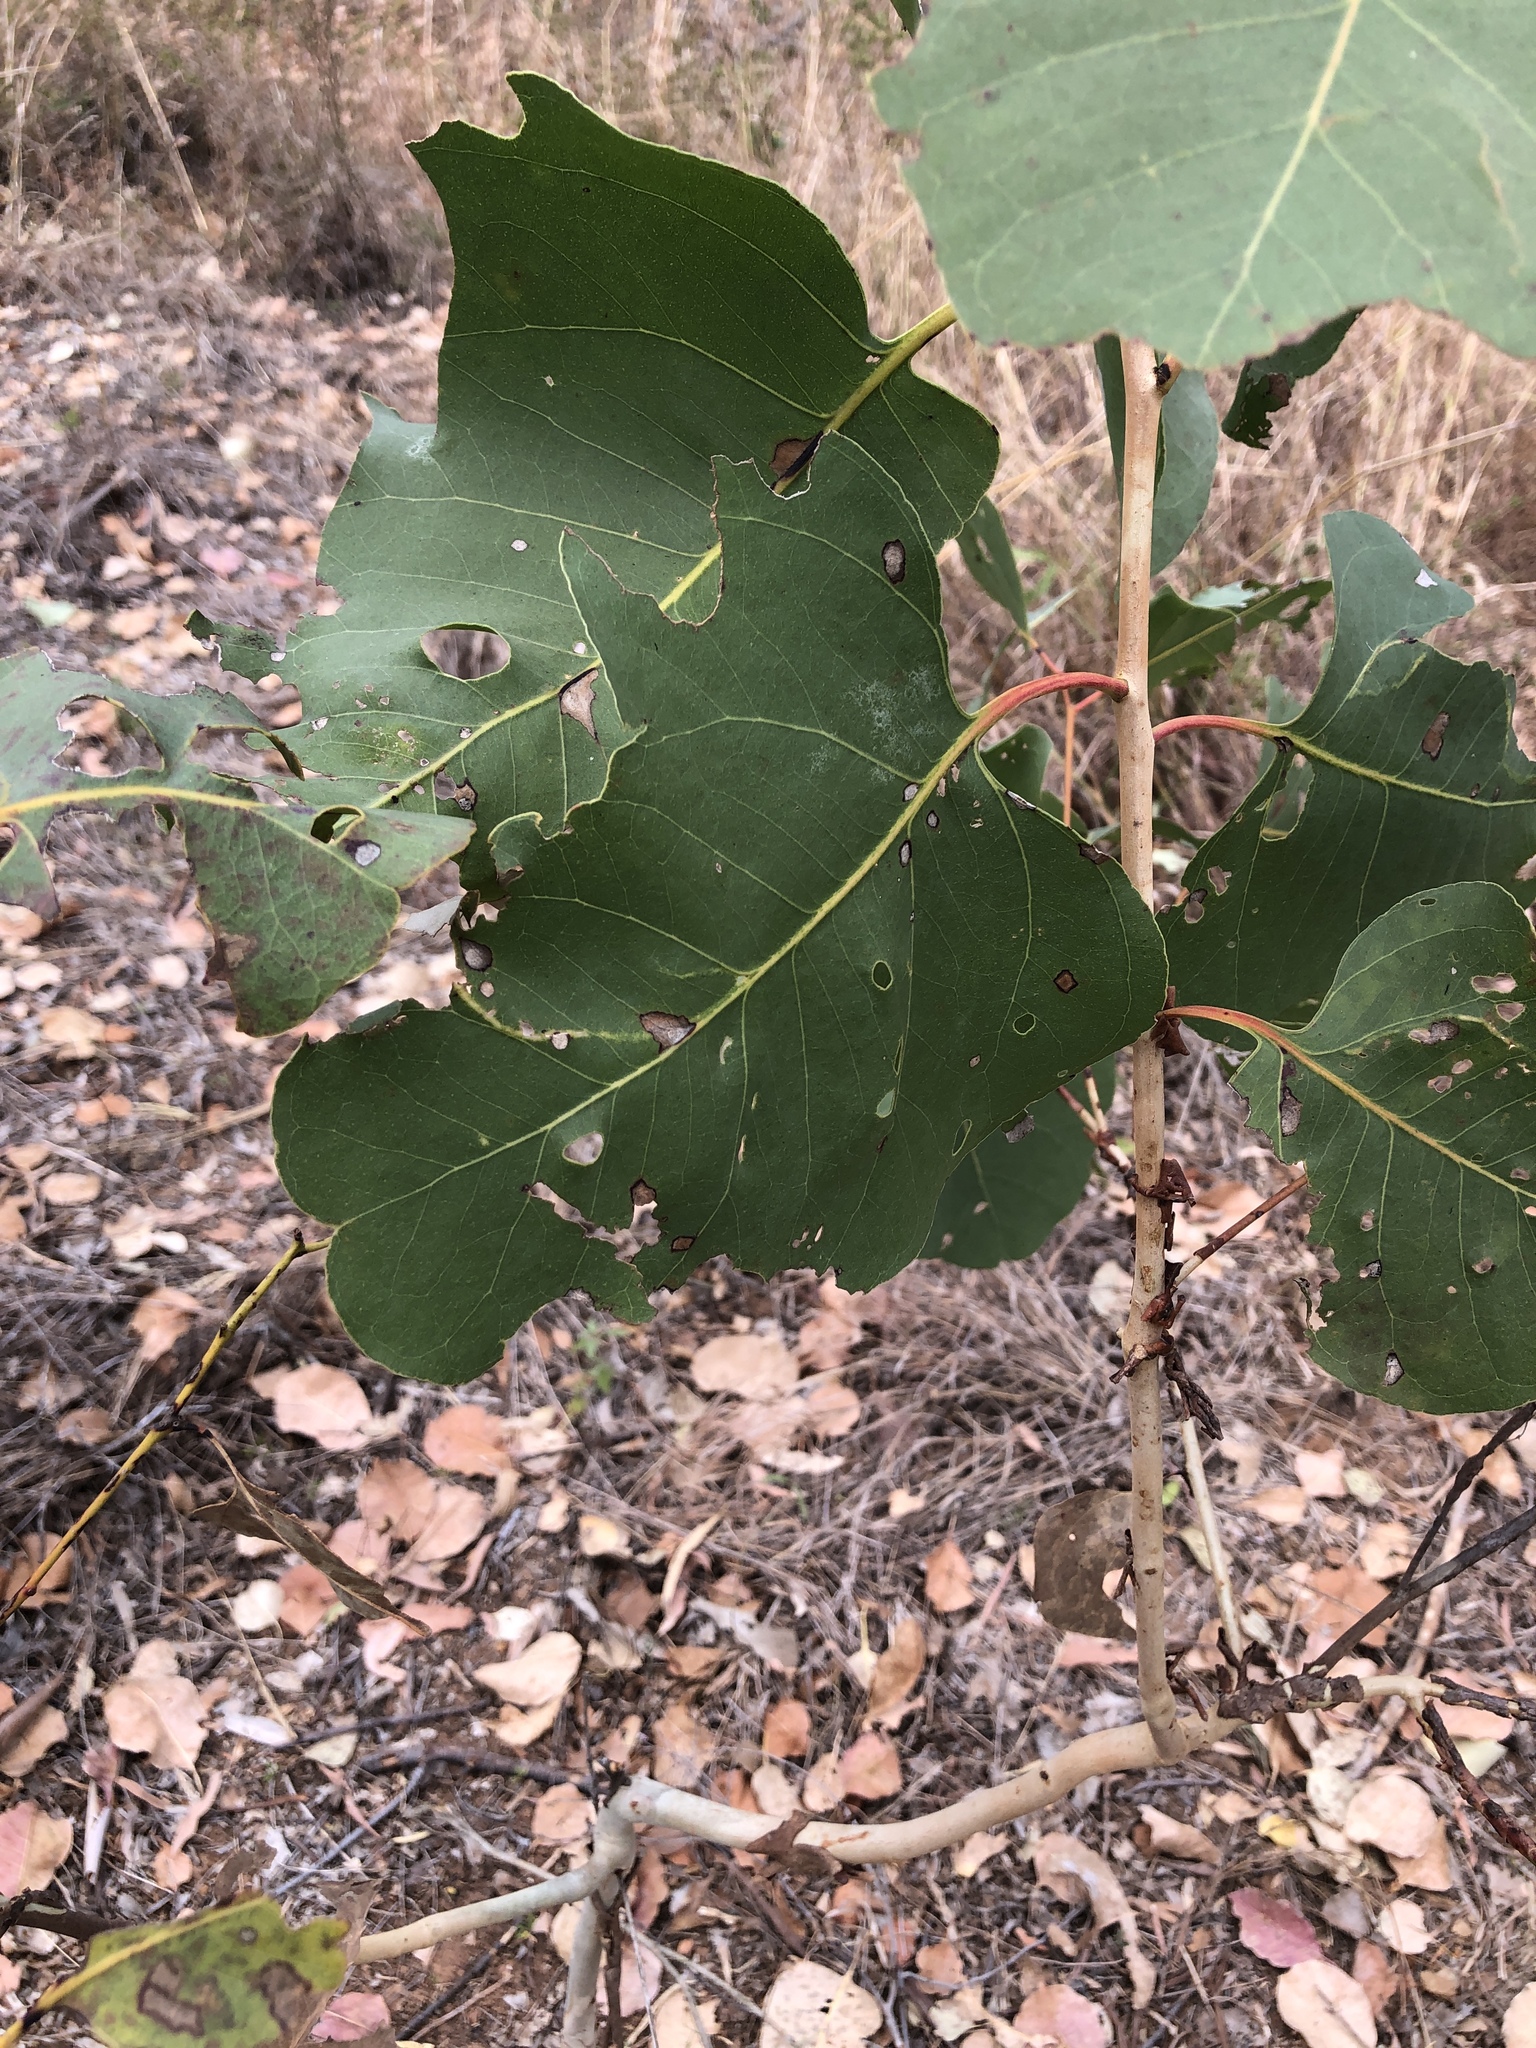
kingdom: Plantae
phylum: Tracheophyta
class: Magnoliopsida
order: Myrtales
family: Myrtaceae
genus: Eucalyptus
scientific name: Eucalyptus platyphylla
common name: Poplar-gum
